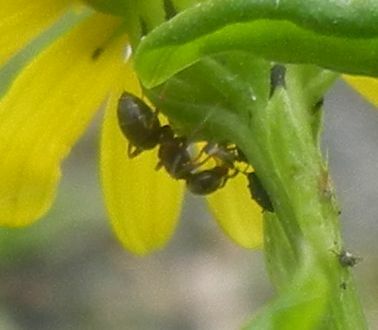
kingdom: Animalia
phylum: Arthropoda
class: Insecta
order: Hymenoptera
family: Formicidae
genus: Lasius
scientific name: Lasius niger
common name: Small black ant
